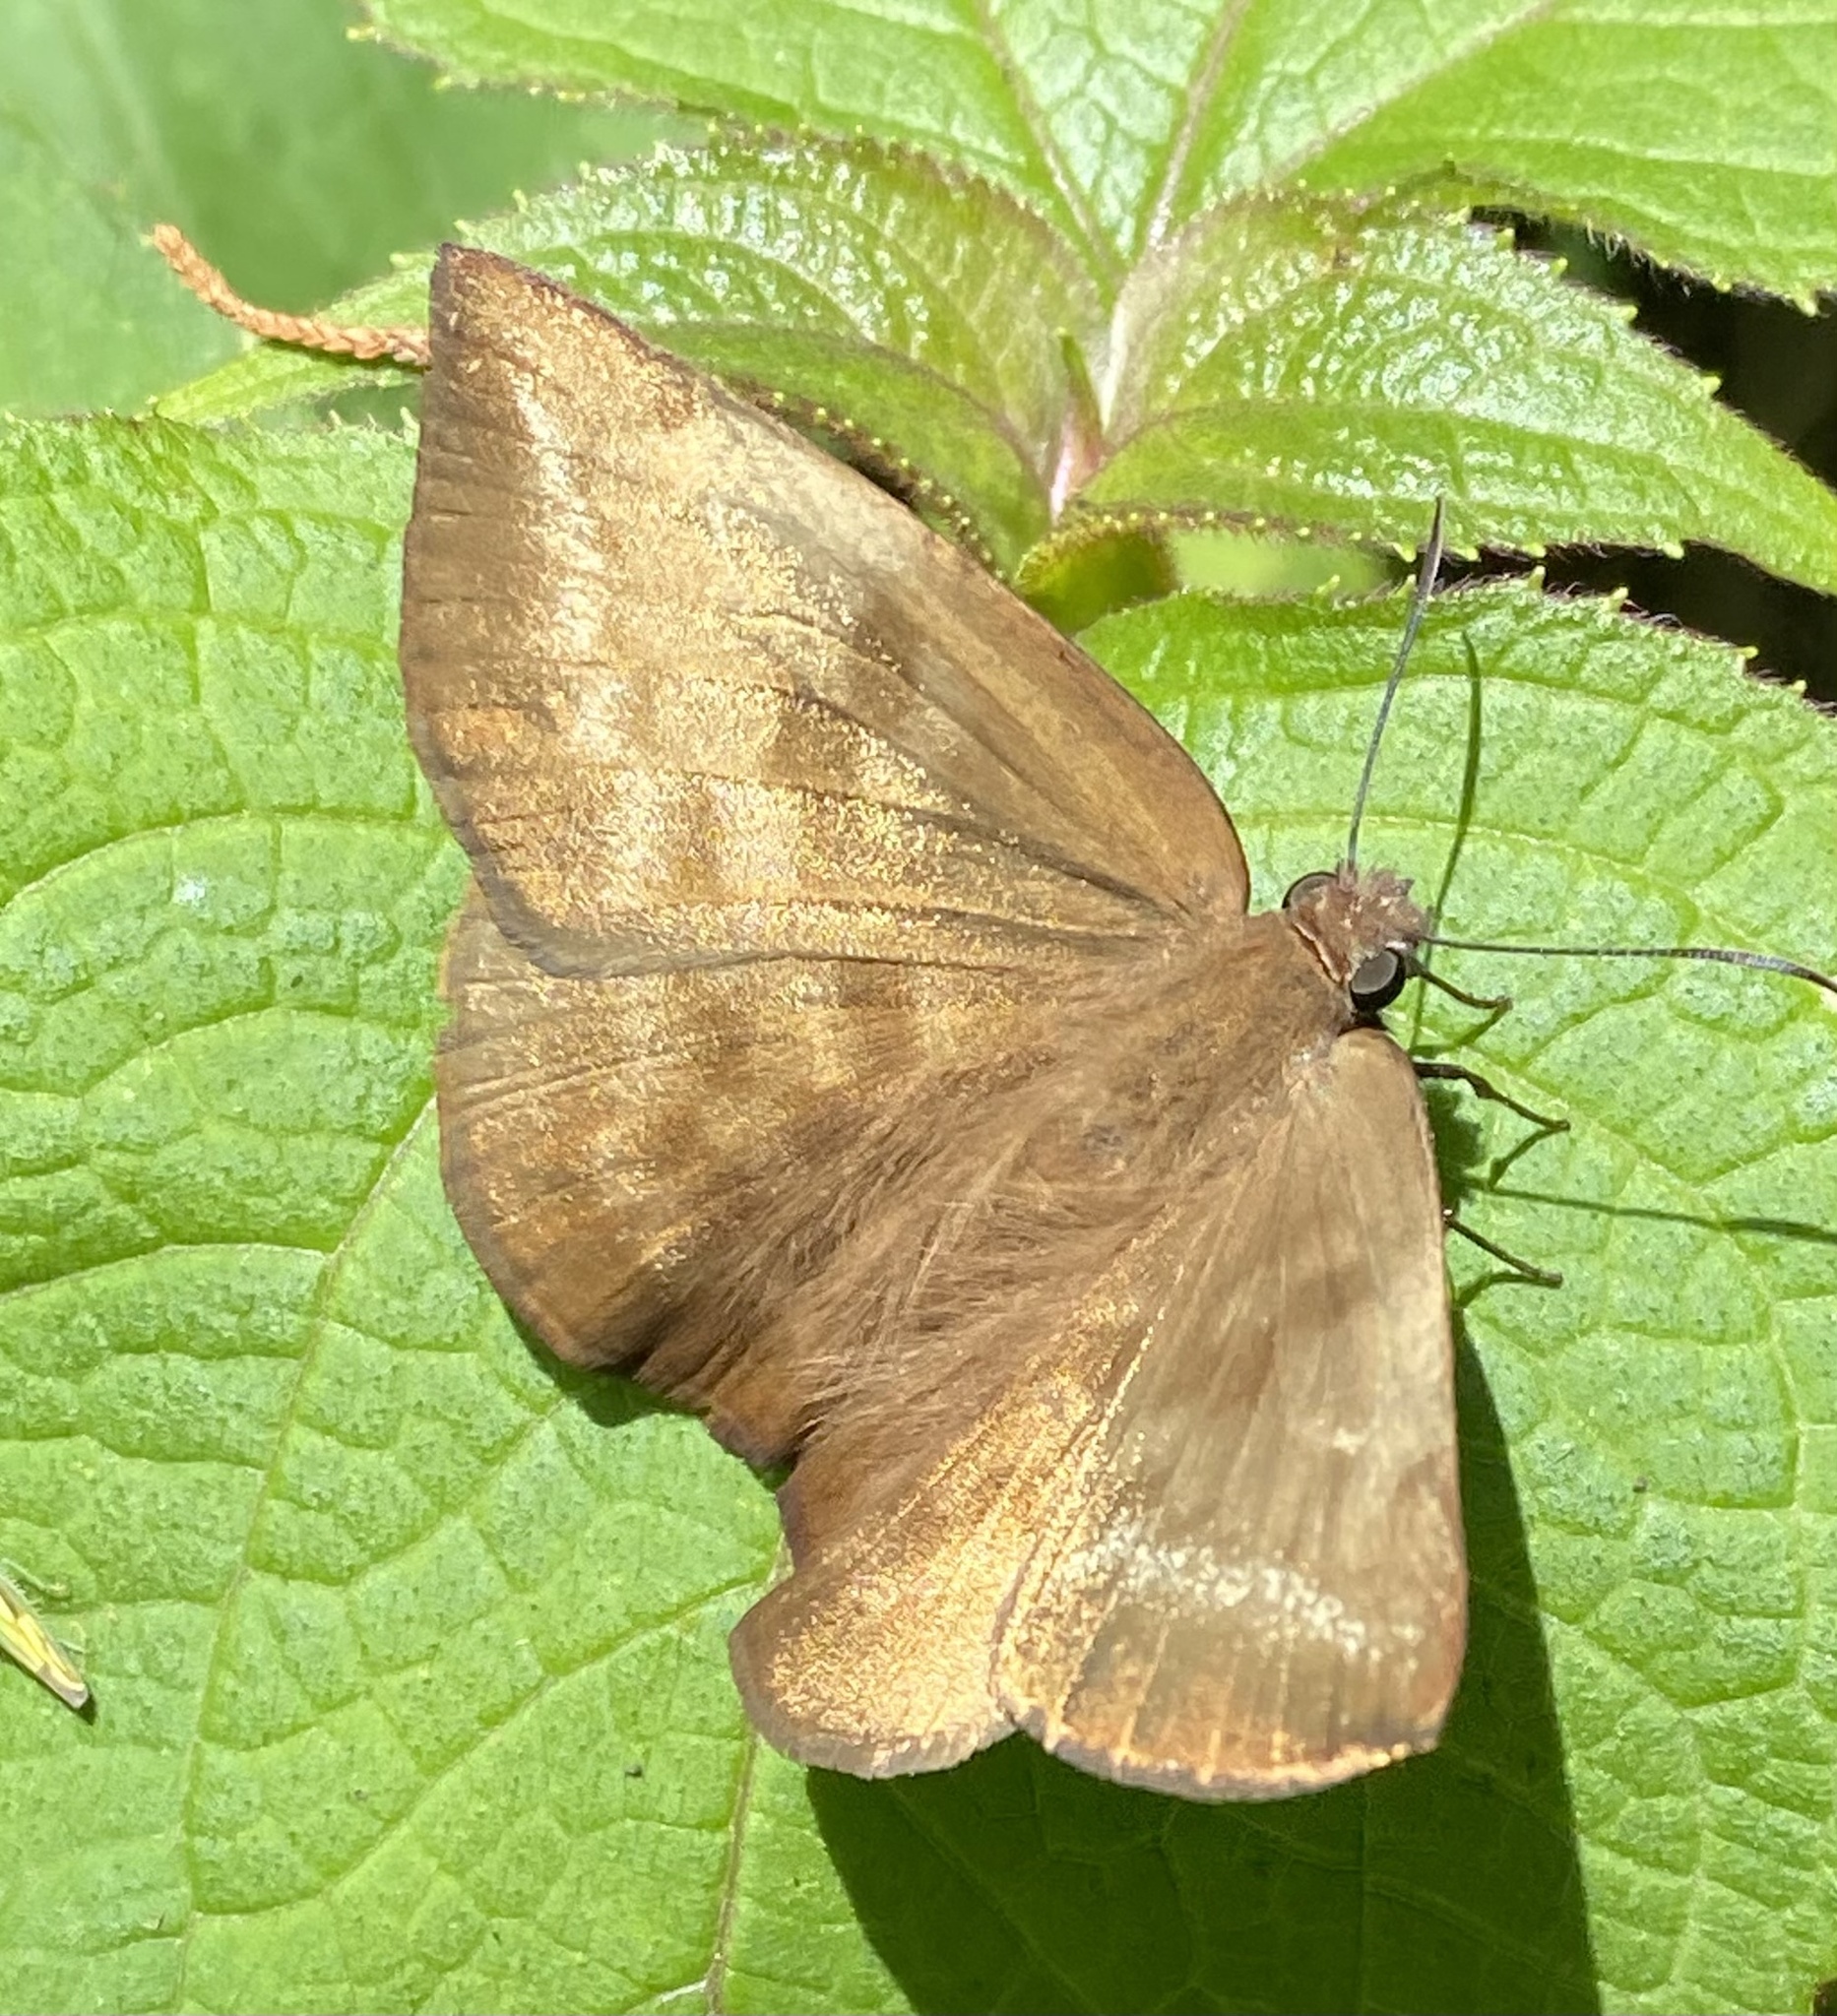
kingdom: Animalia
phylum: Arthropoda
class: Insecta
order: Lepidoptera
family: Hesperiidae
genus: Achlyodes
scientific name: Achlyodes pallida
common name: Pale sicklewing
